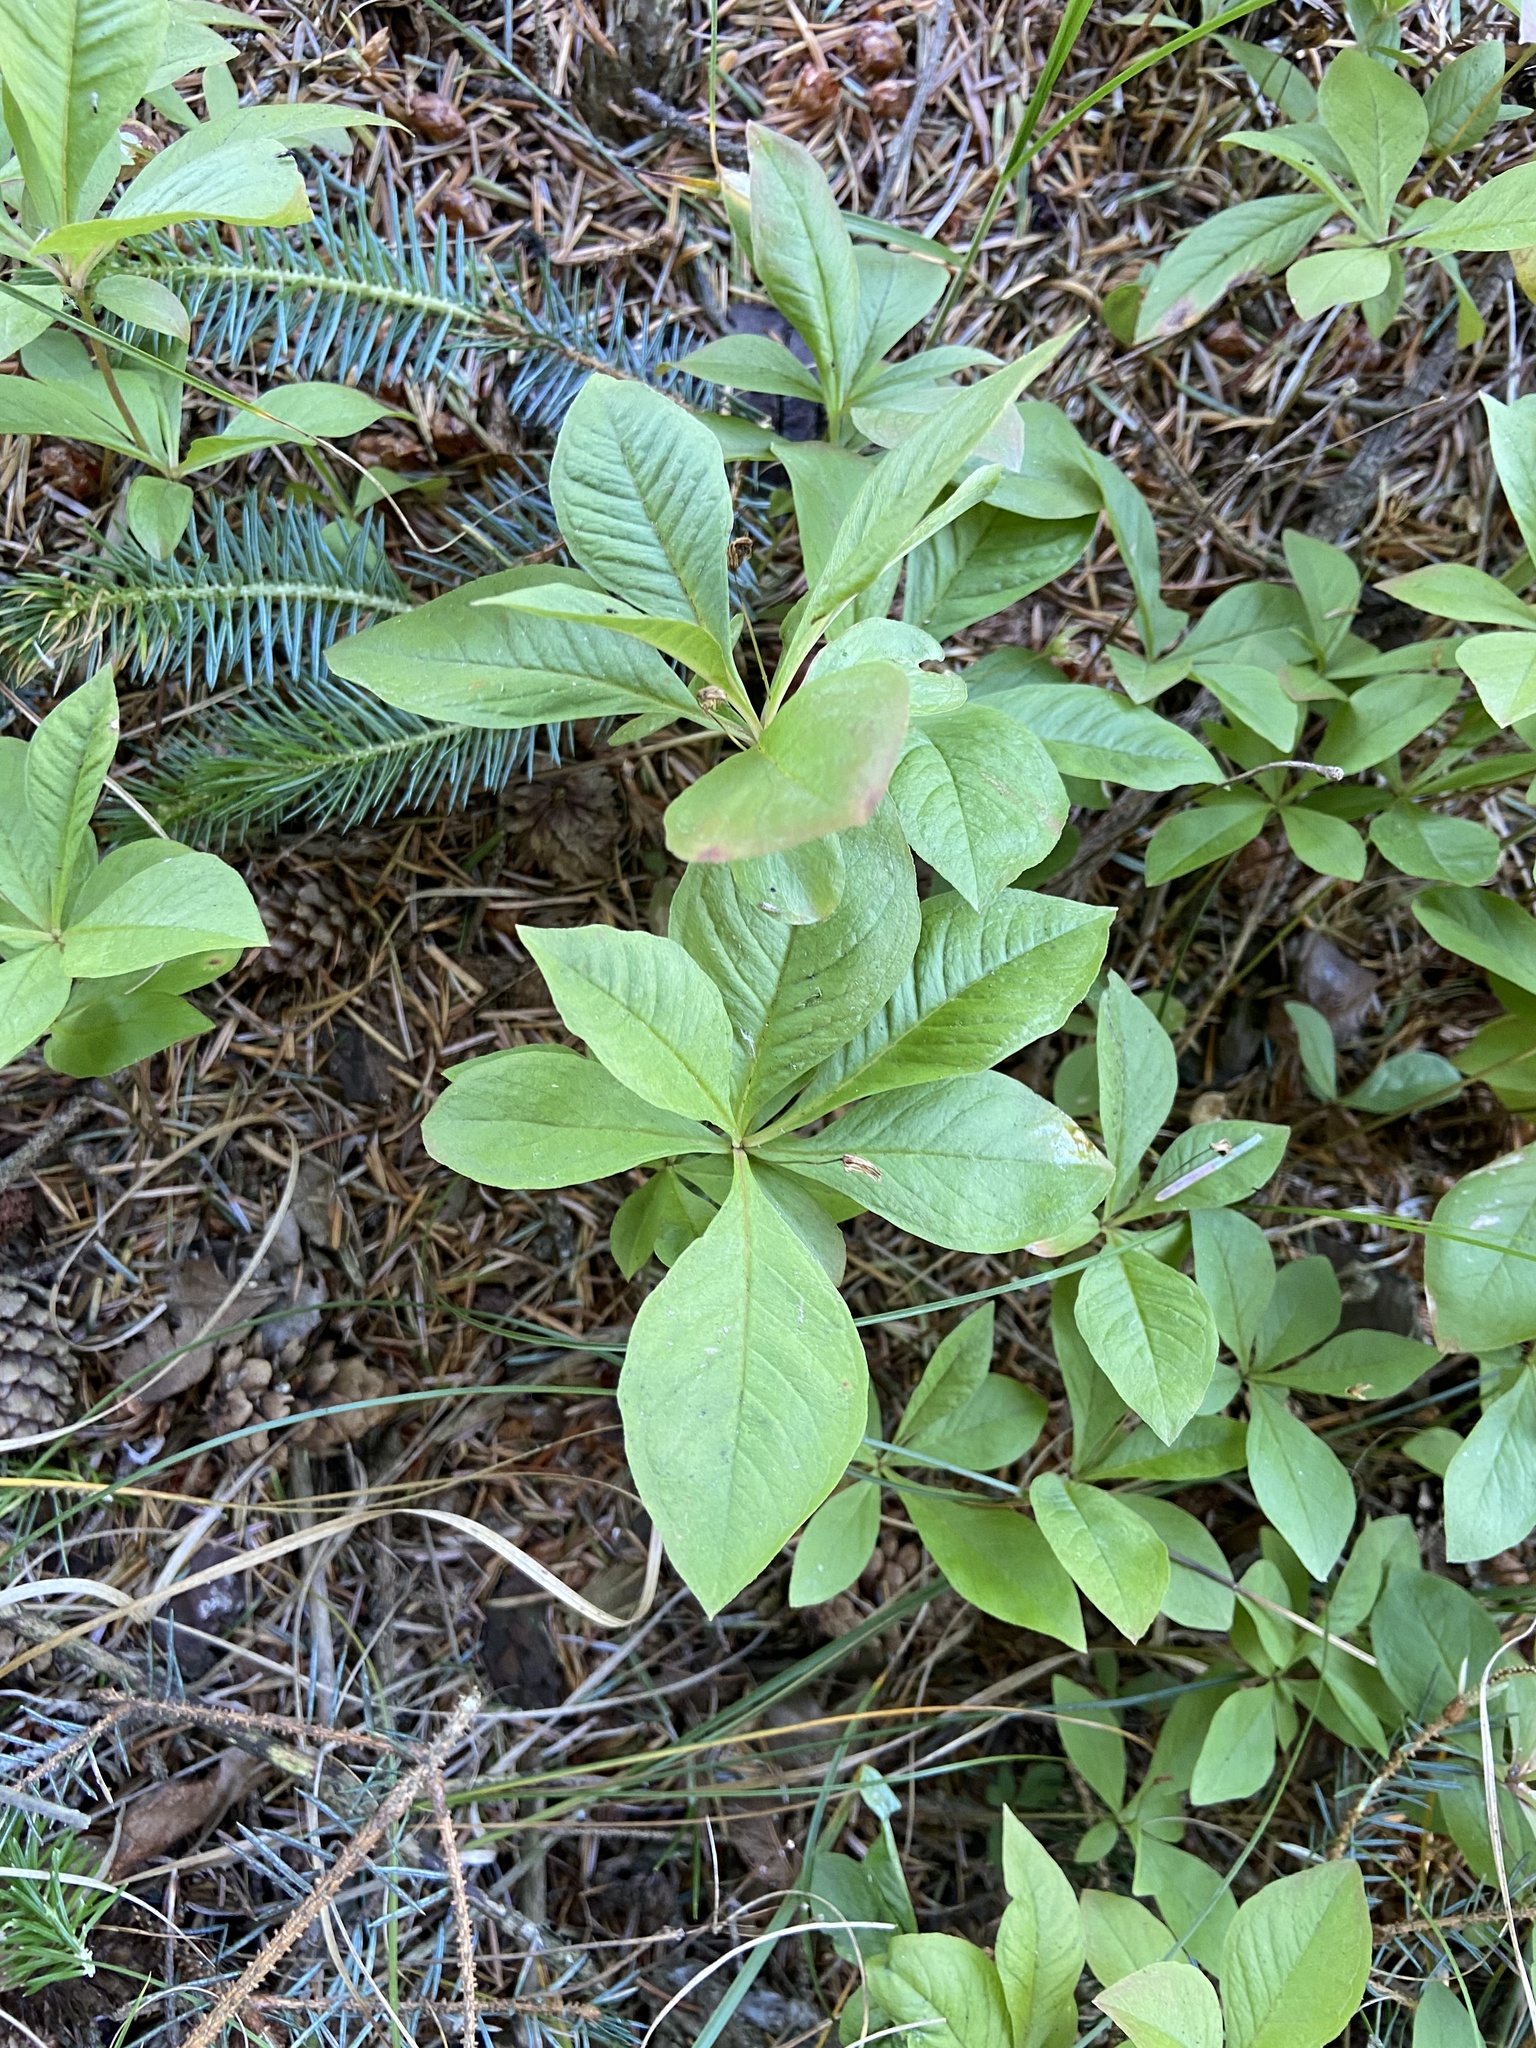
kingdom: Plantae
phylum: Tracheophyta
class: Liliopsida
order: Asparagales
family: Asparagaceae
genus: Maianthemum
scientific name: Maianthemum bifolium
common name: May lily
